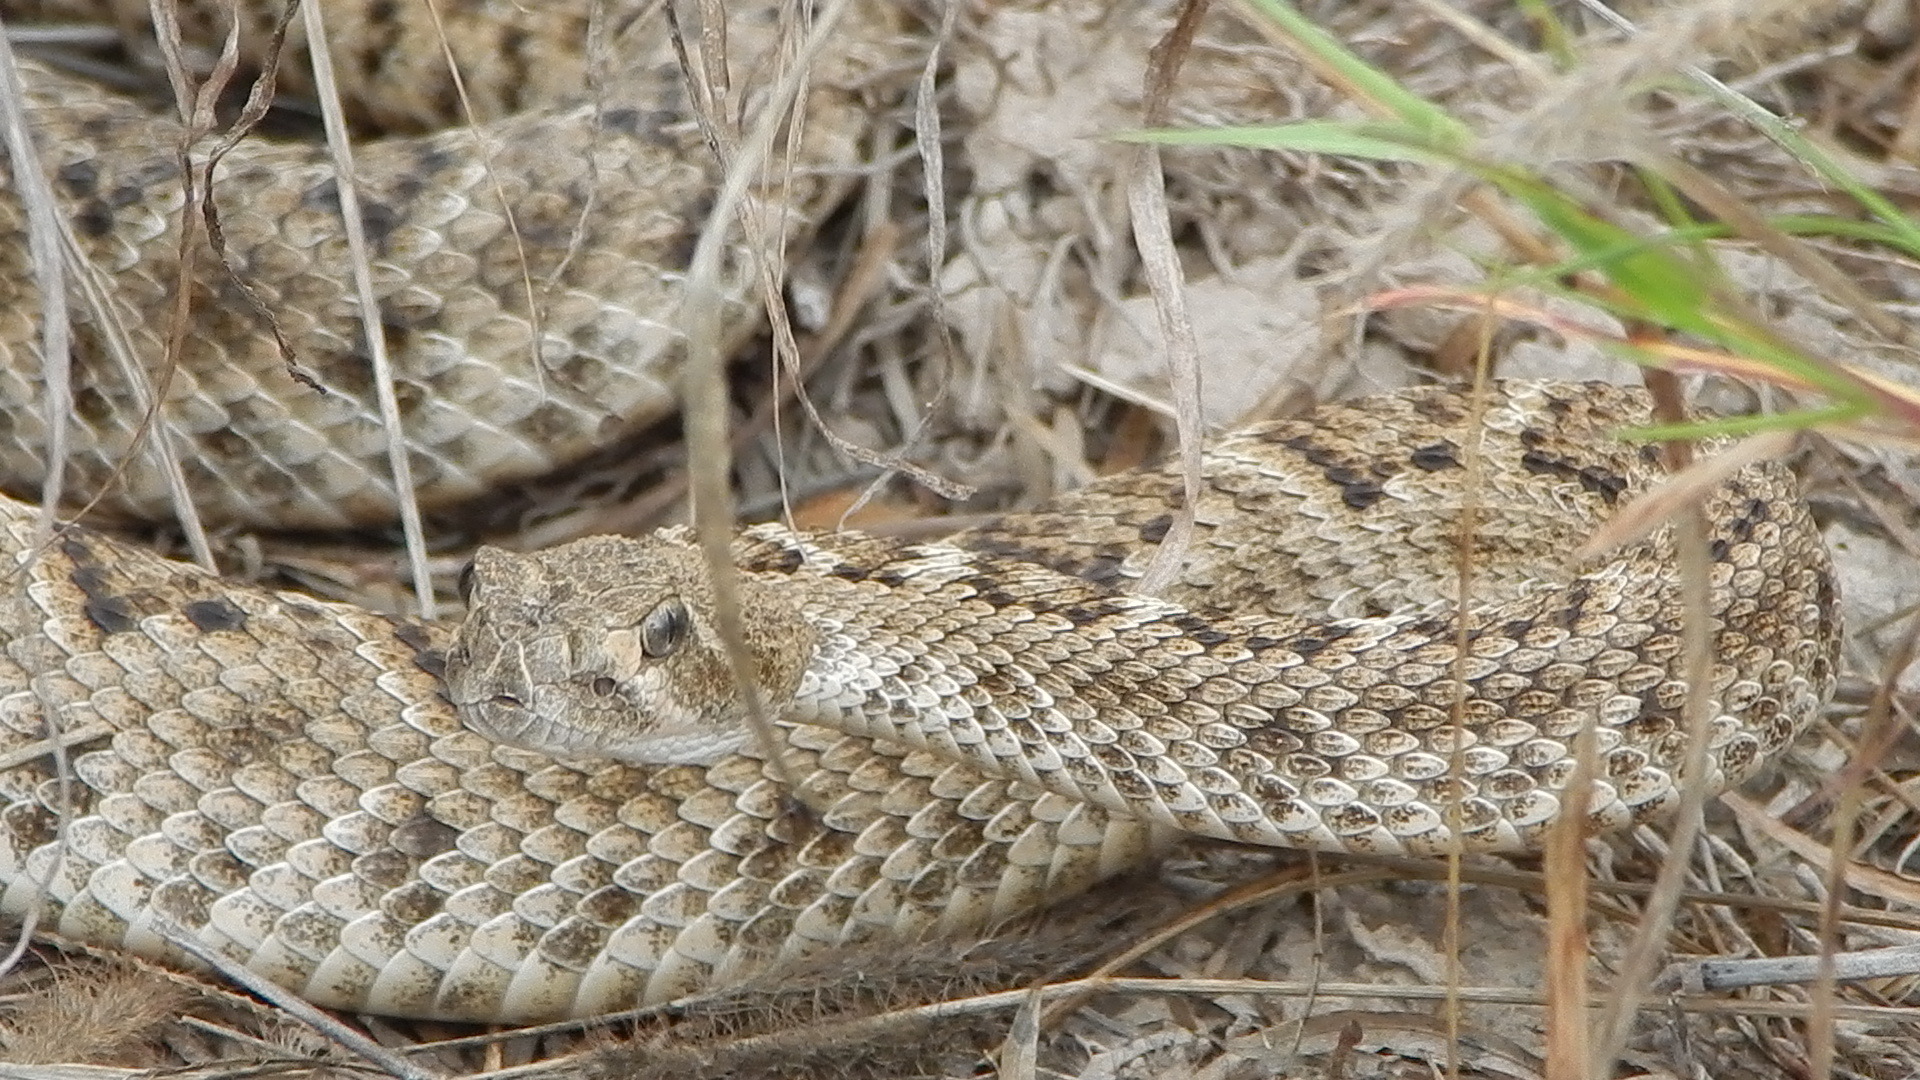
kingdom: Animalia
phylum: Chordata
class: Squamata
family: Viperidae
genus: Crotalus
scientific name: Crotalus atrox
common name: Western diamond-backed rattlesnake
